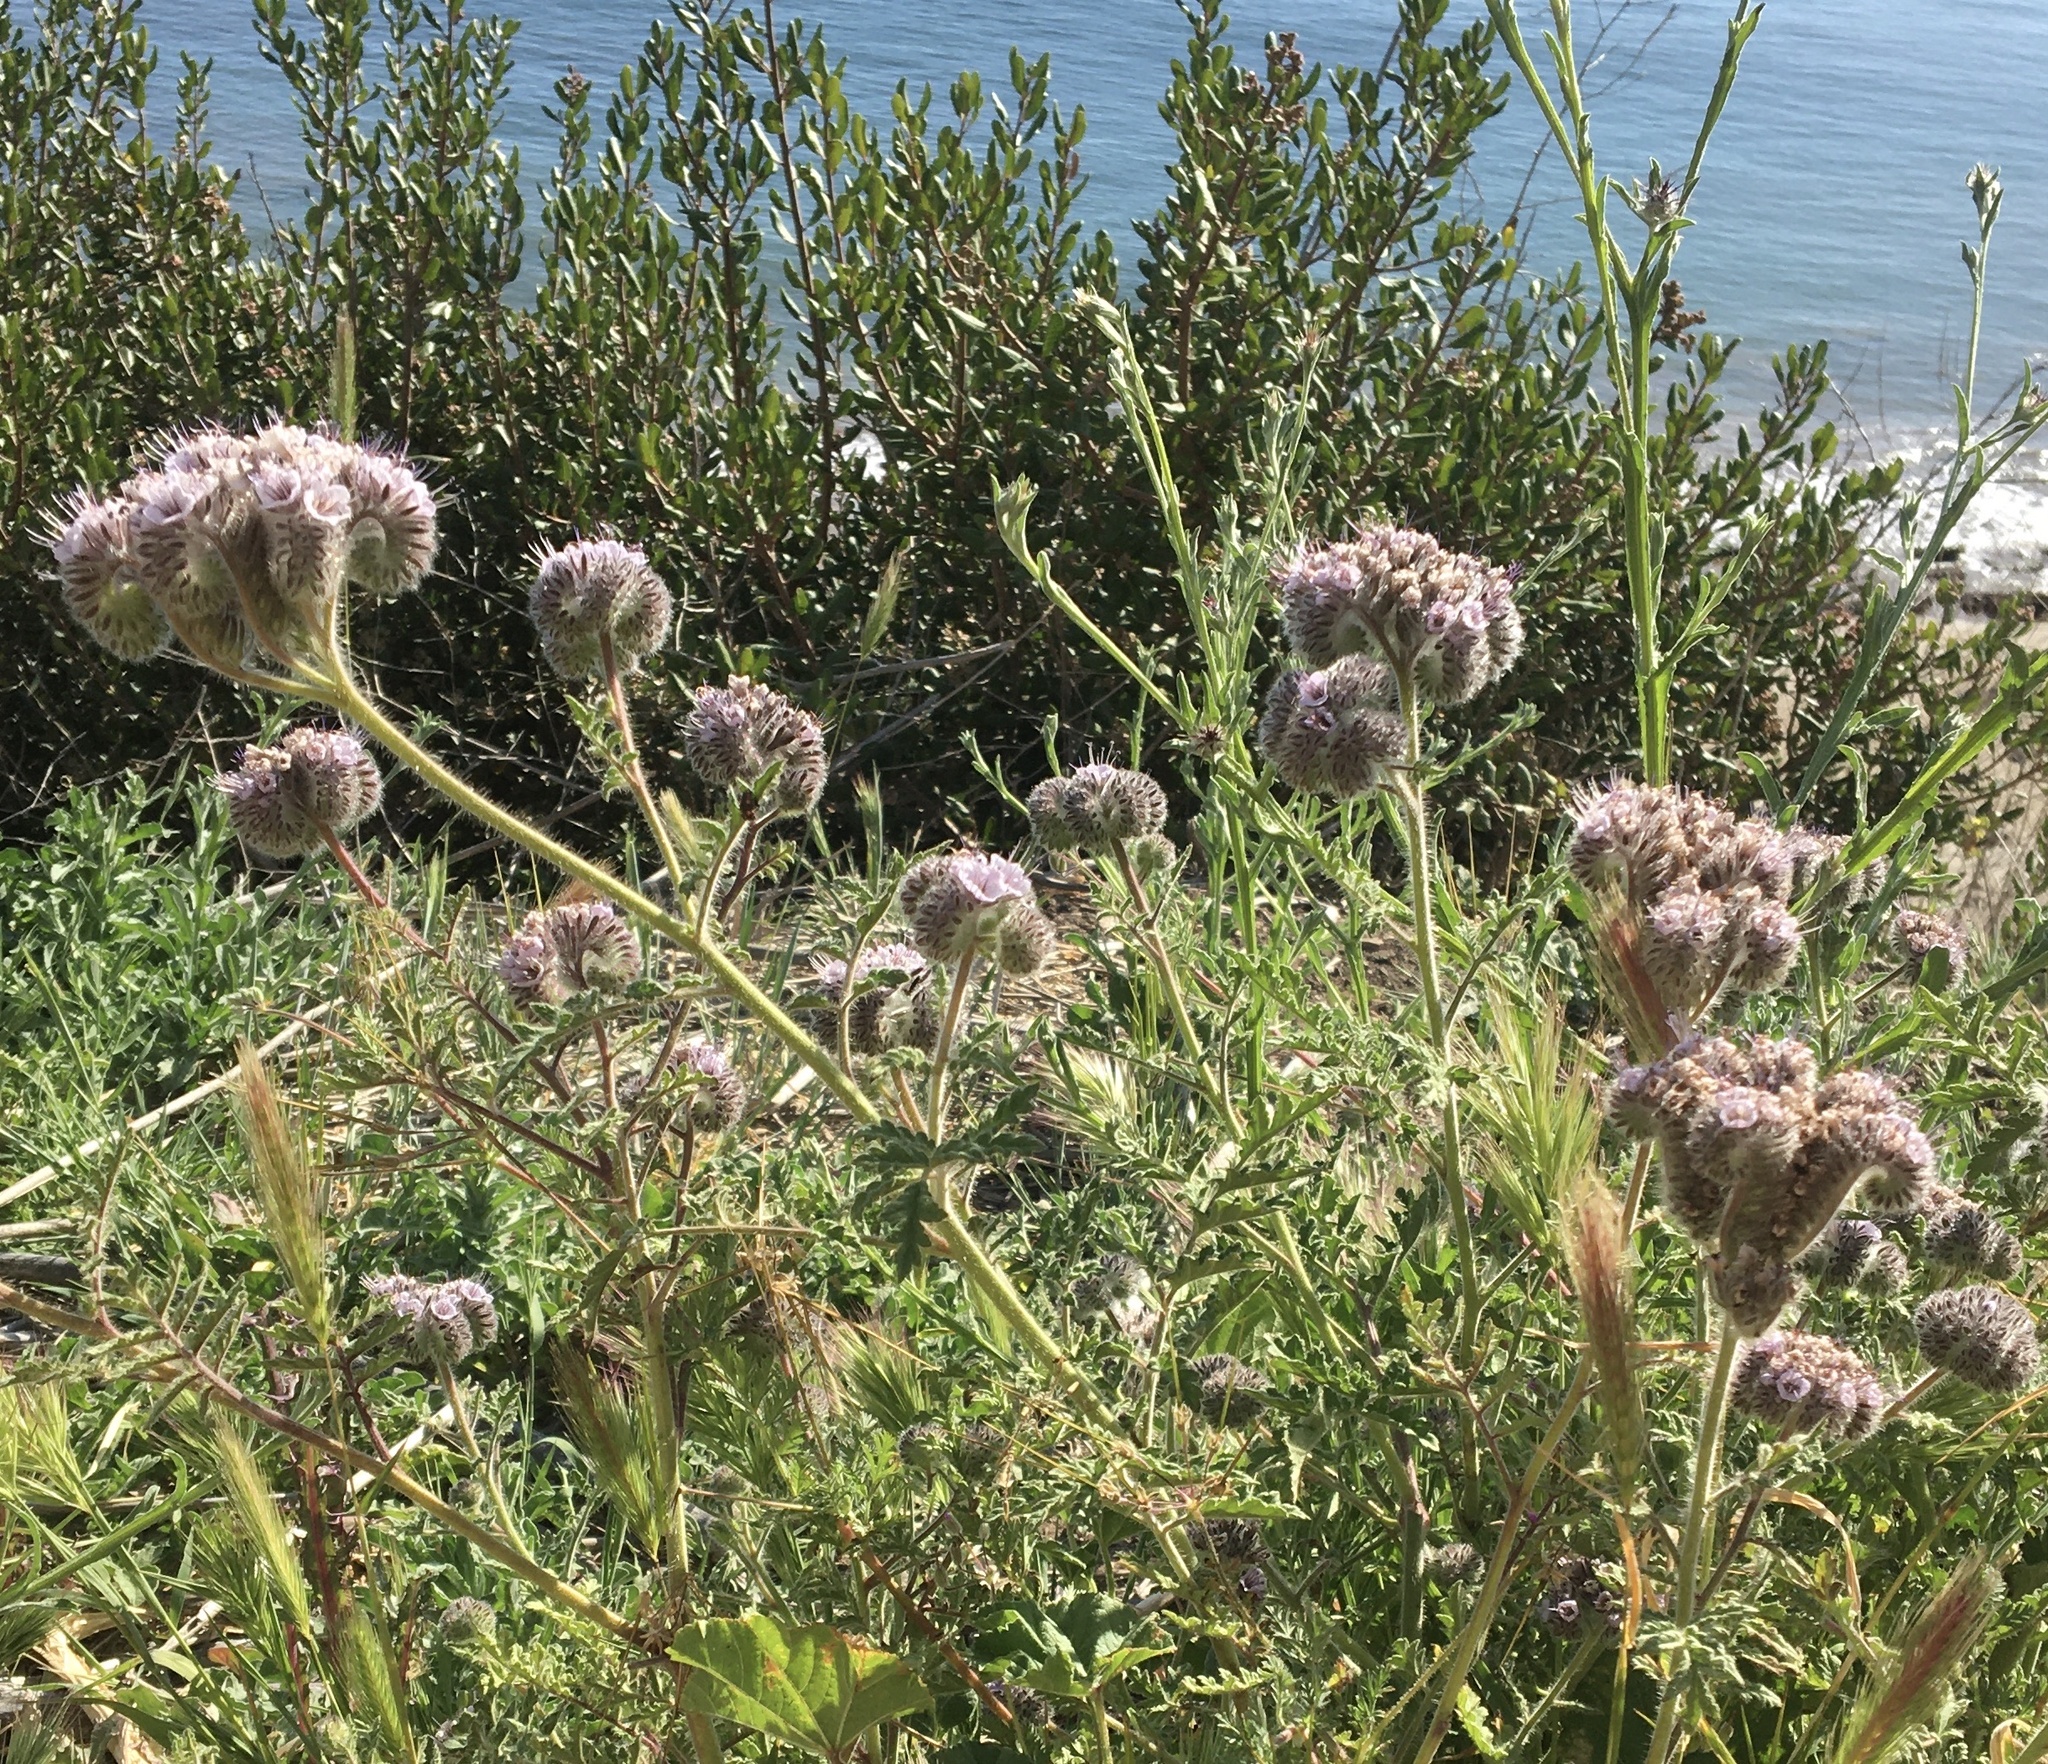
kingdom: Plantae
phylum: Tracheophyta
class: Magnoliopsida
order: Boraginales
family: Hydrophyllaceae
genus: Phacelia
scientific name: Phacelia hubbyi
